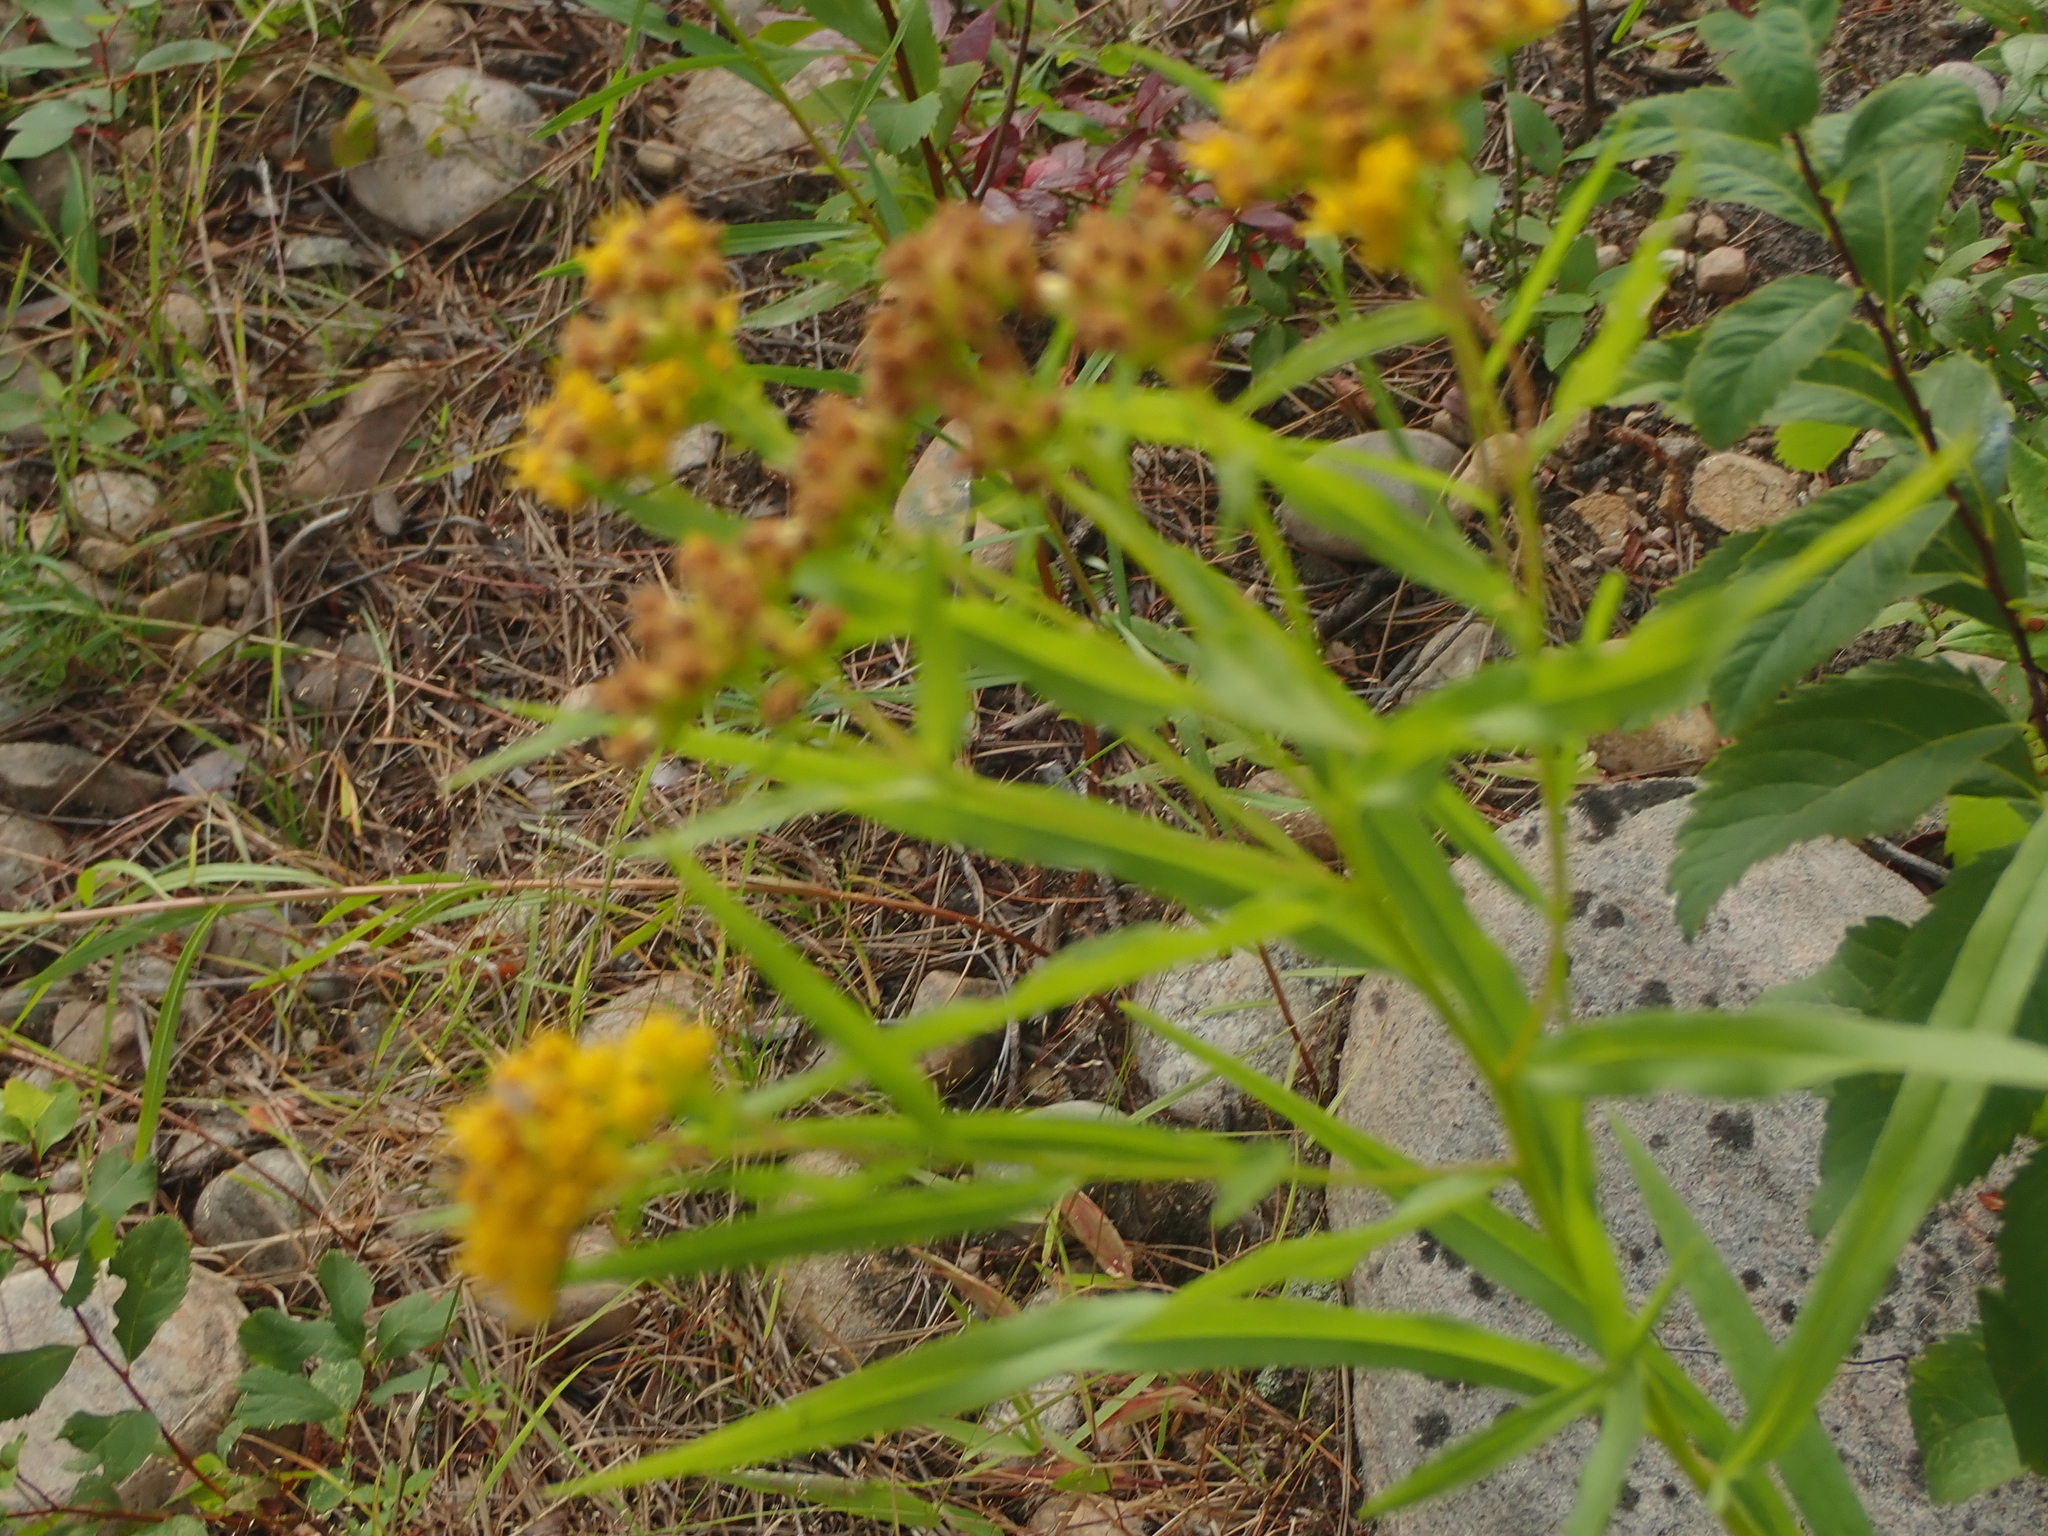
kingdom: Plantae
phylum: Tracheophyta
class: Magnoliopsida
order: Asterales
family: Asteraceae
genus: Euthamia
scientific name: Euthamia graminifolia
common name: Common goldentop
